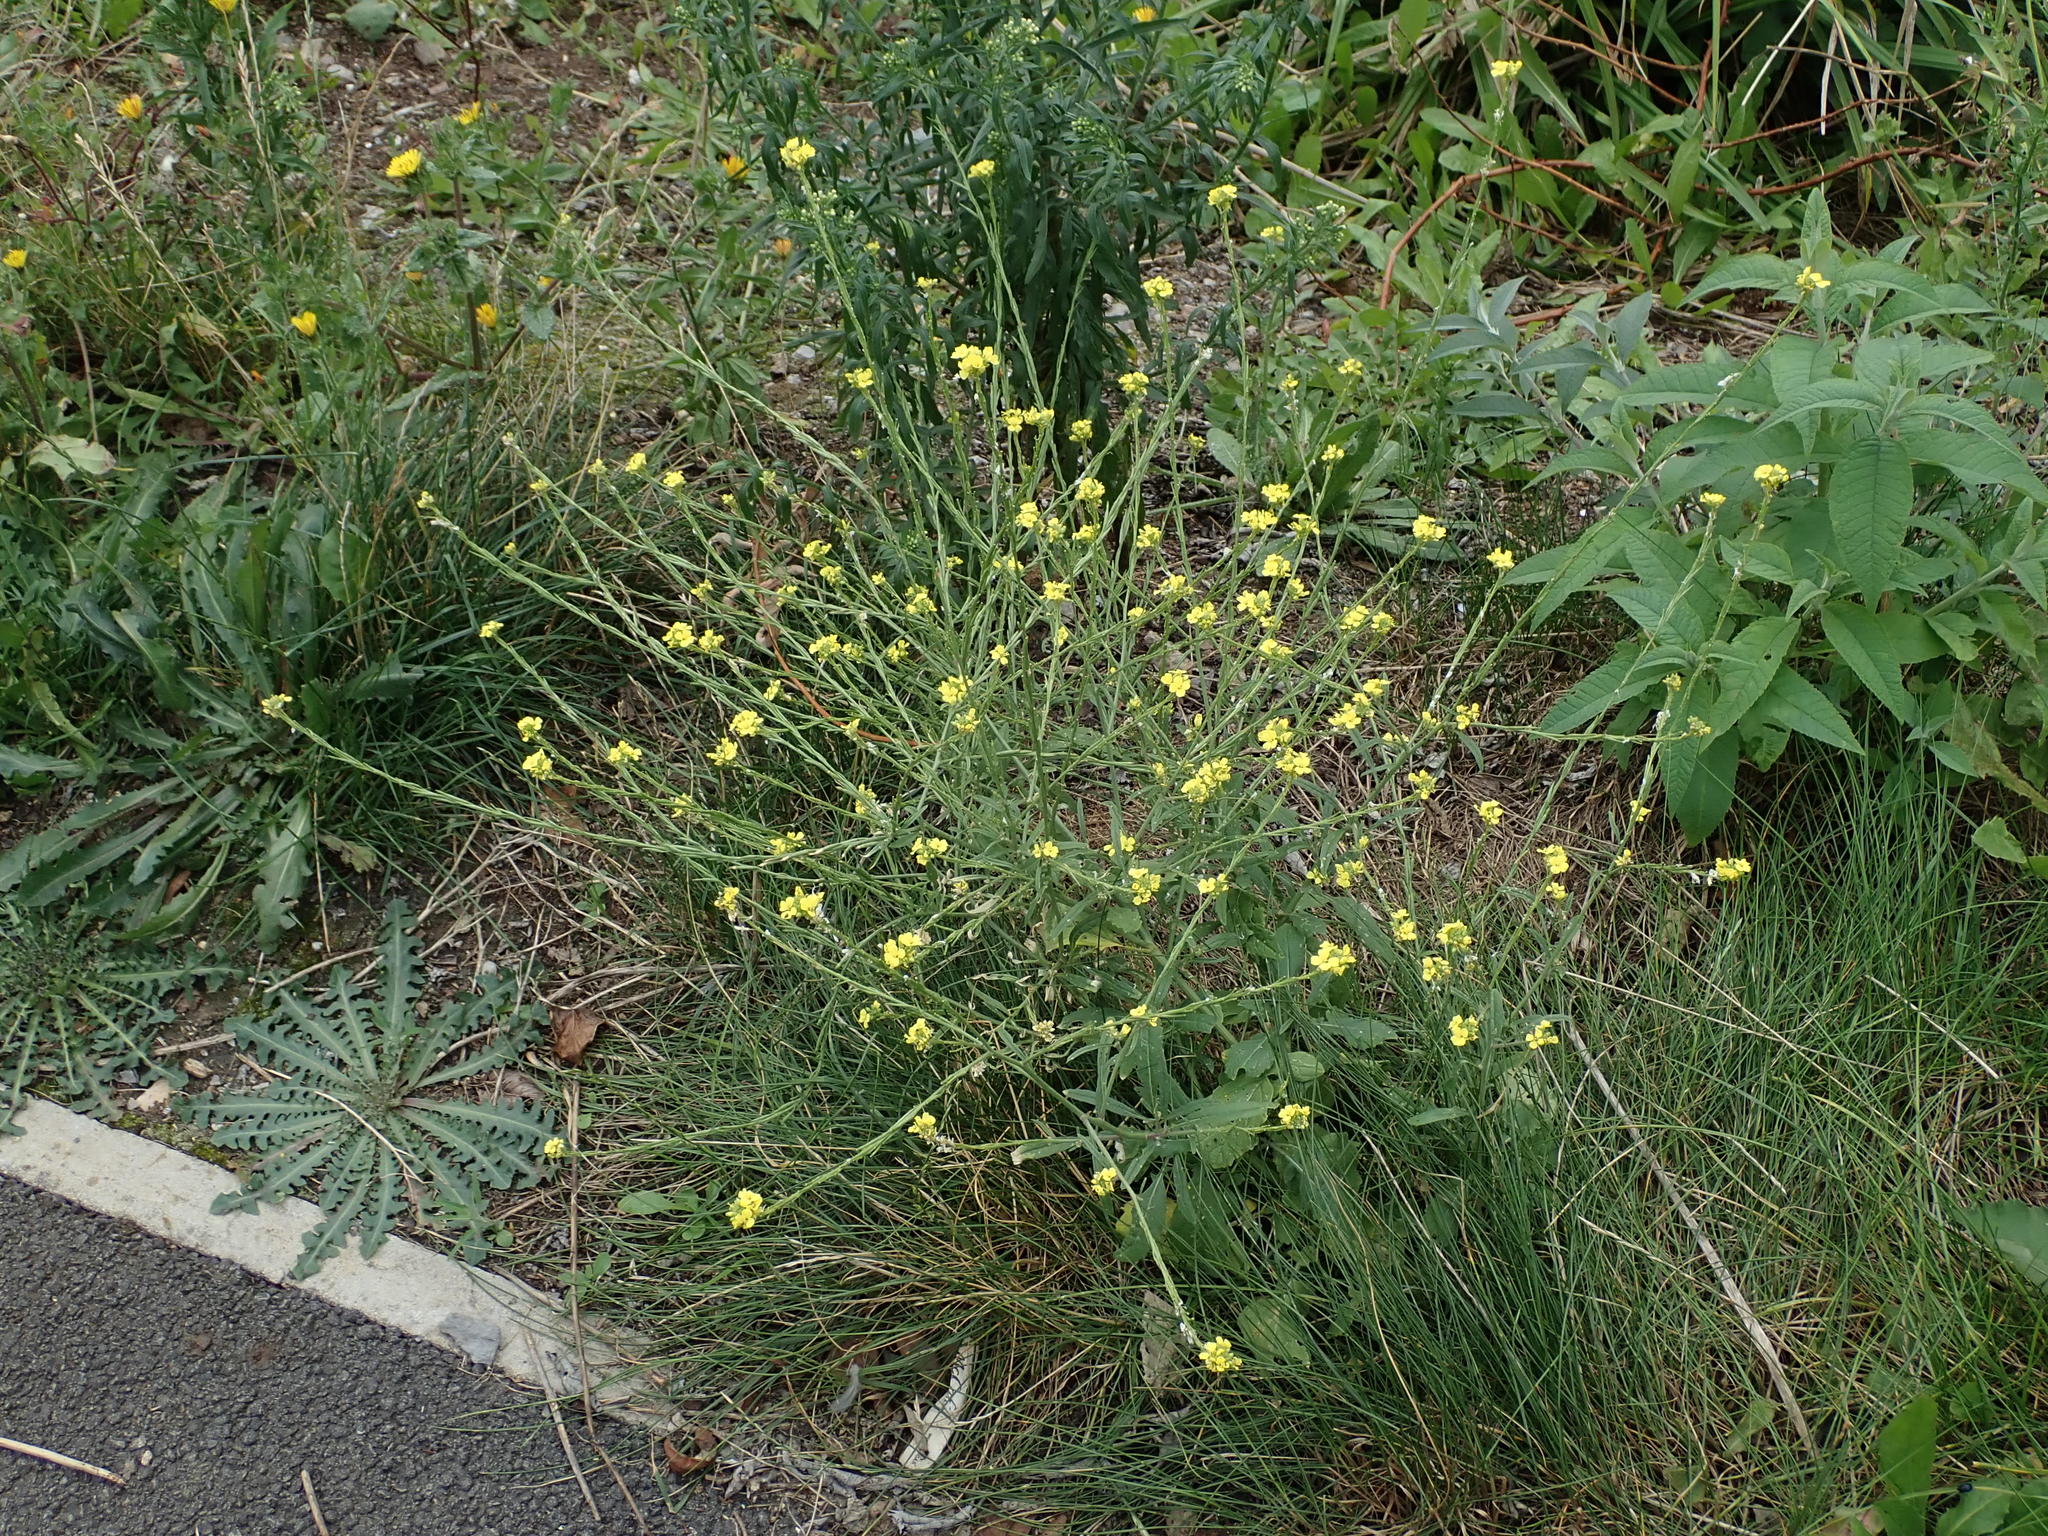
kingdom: Plantae
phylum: Tracheophyta
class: Magnoliopsida
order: Brassicales
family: Brassicaceae
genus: Hirschfeldia
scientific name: Hirschfeldia incana
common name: Hoary mustard
